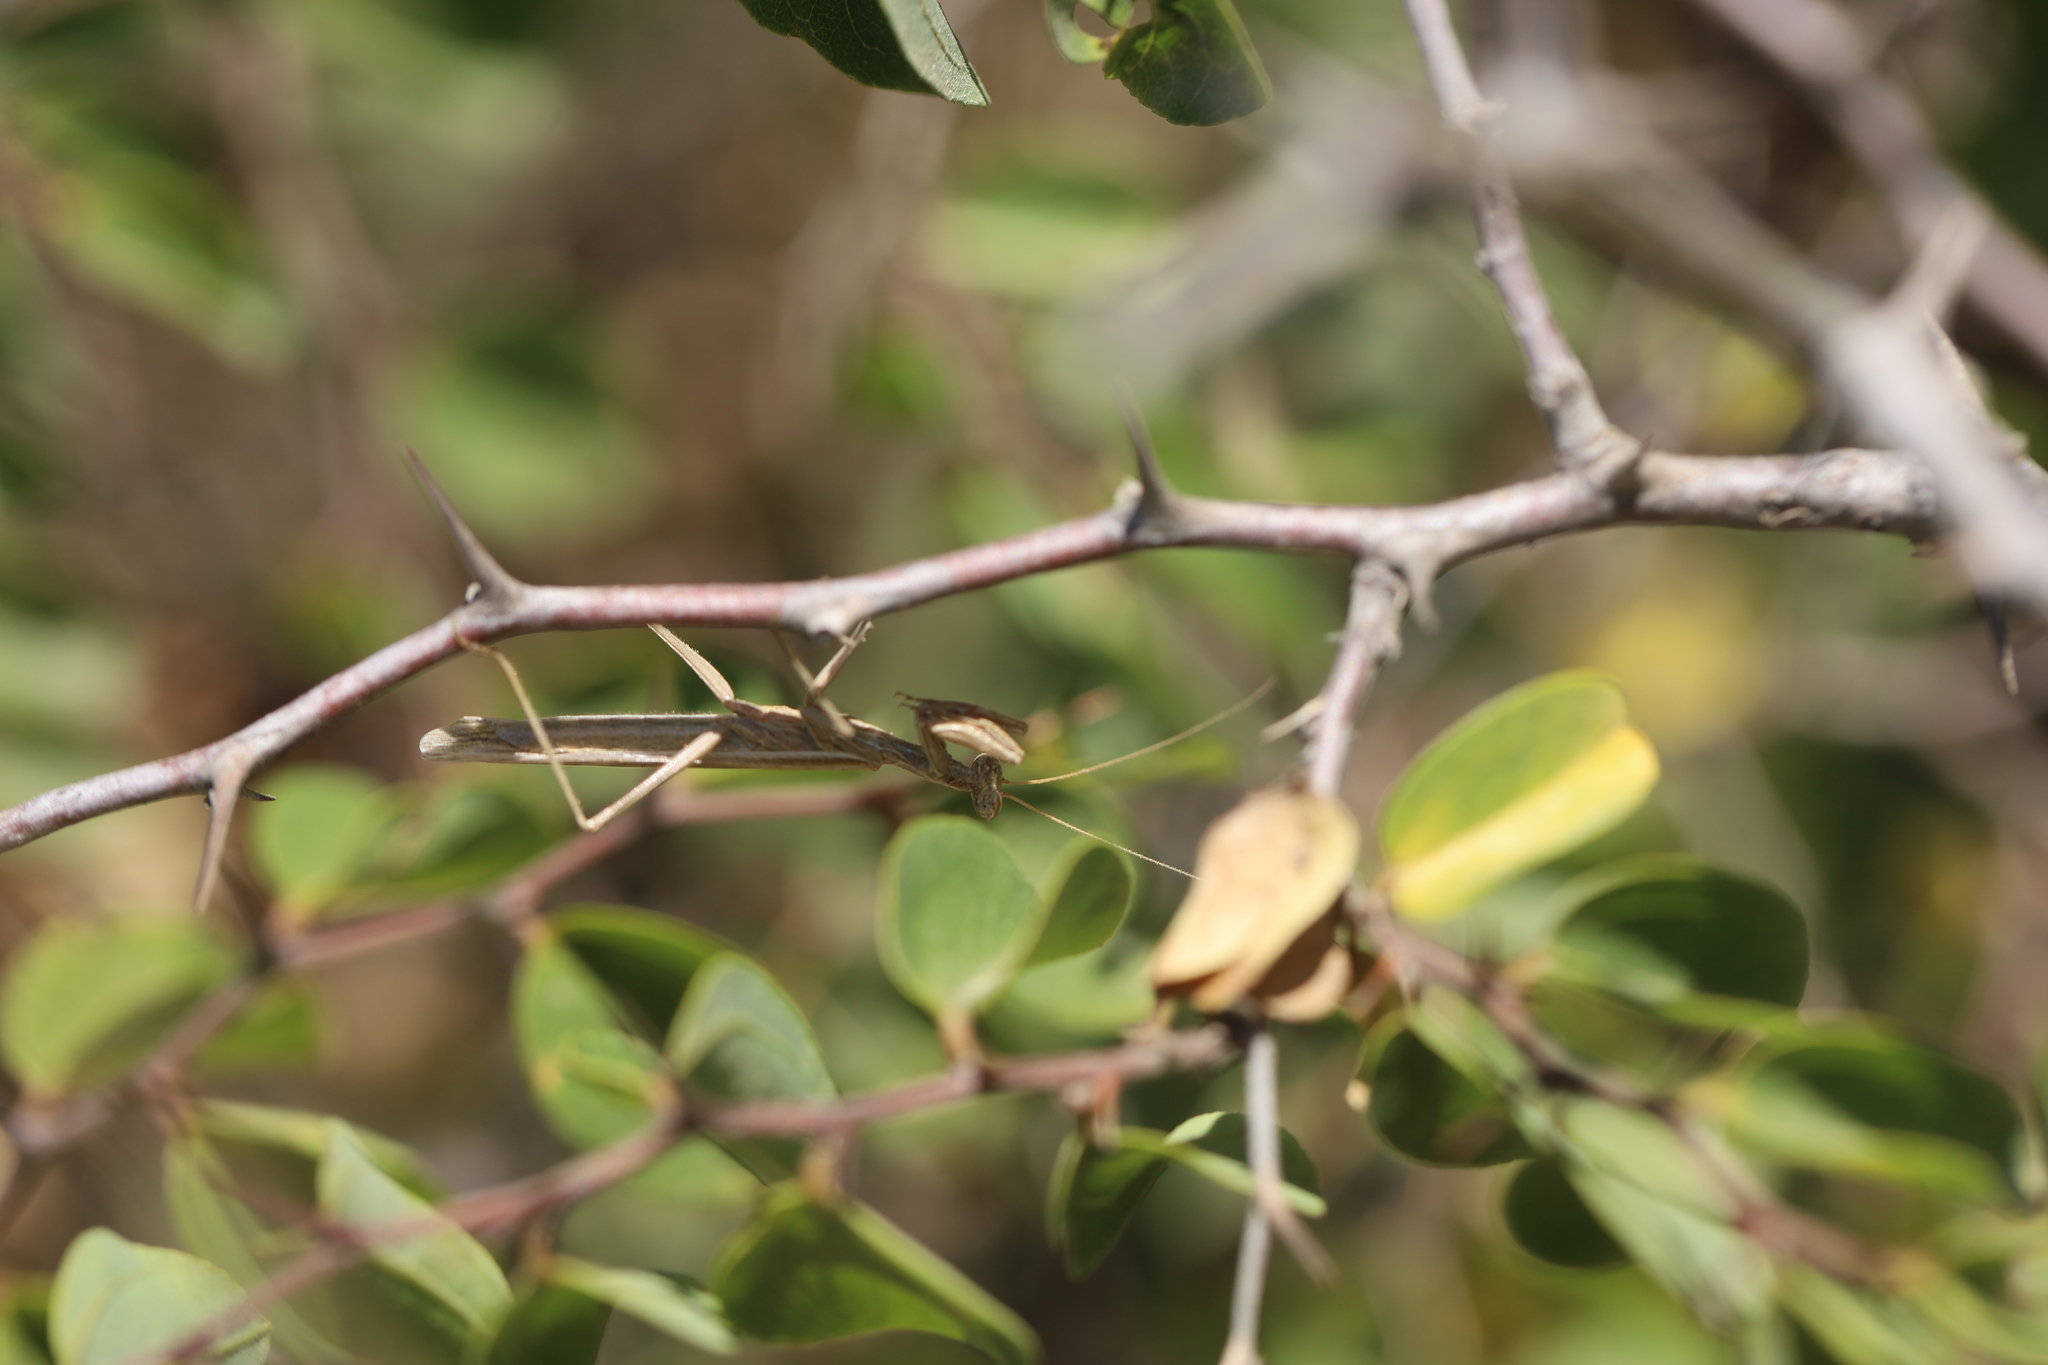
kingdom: Animalia
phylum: Arthropoda
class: Insecta
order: Mantodea
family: Amelidae
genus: Ameles
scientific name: Ameles decolor
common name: Dwarf mantis
